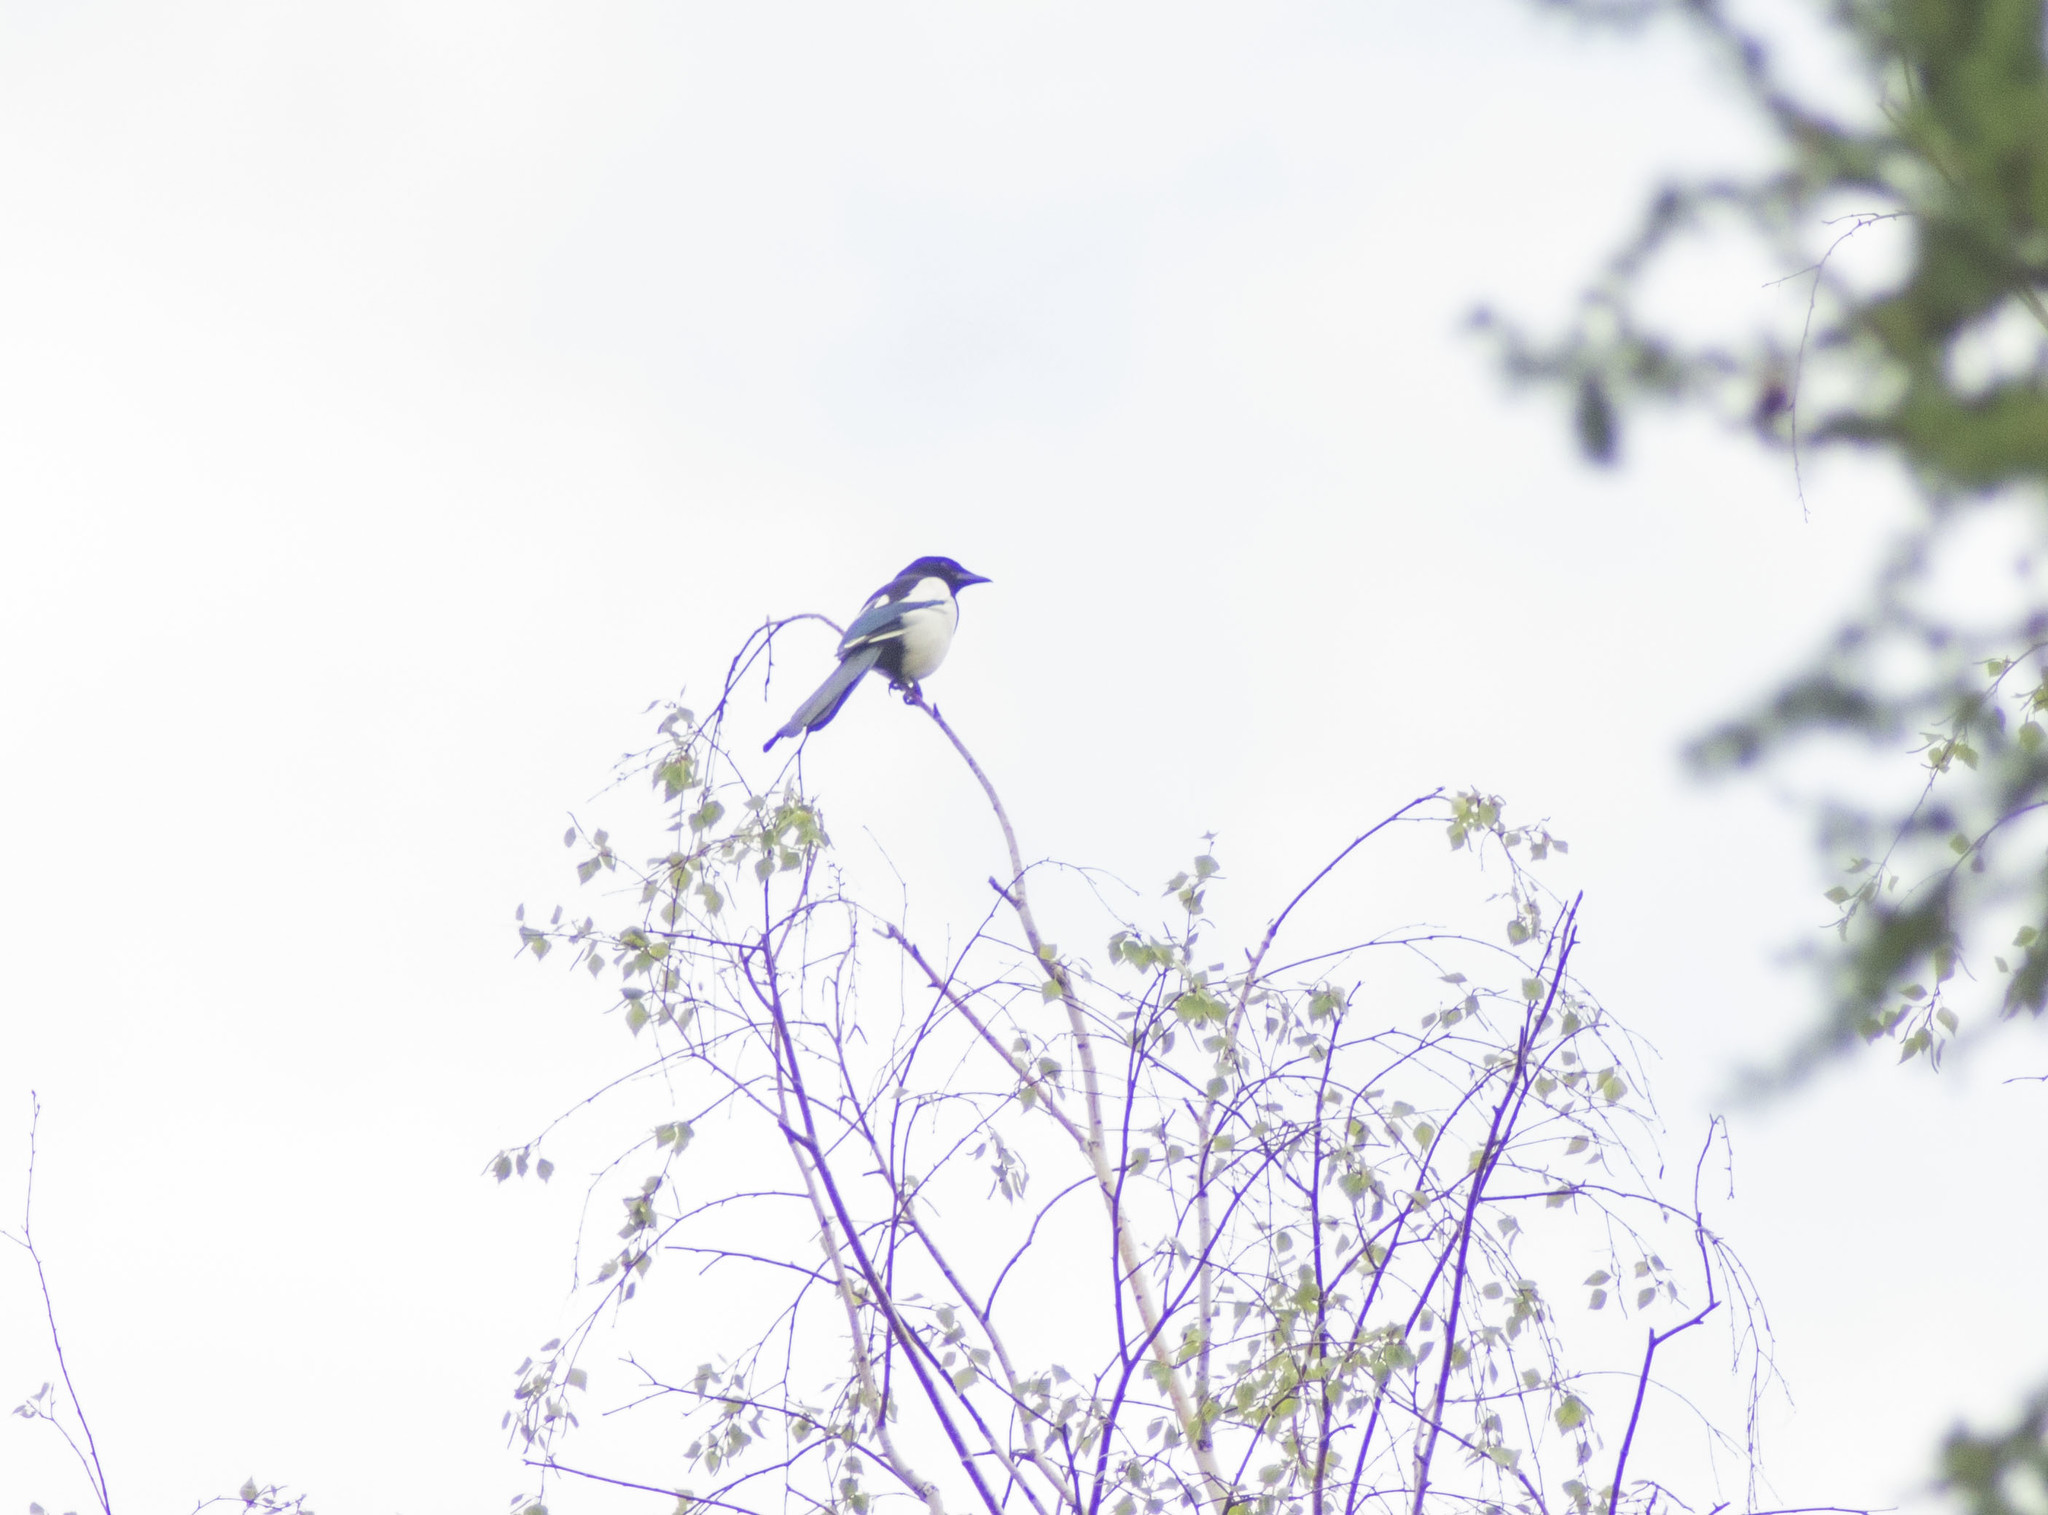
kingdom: Animalia
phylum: Chordata
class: Aves
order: Passeriformes
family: Corvidae
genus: Pica
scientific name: Pica pica
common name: Eurasian magpie
